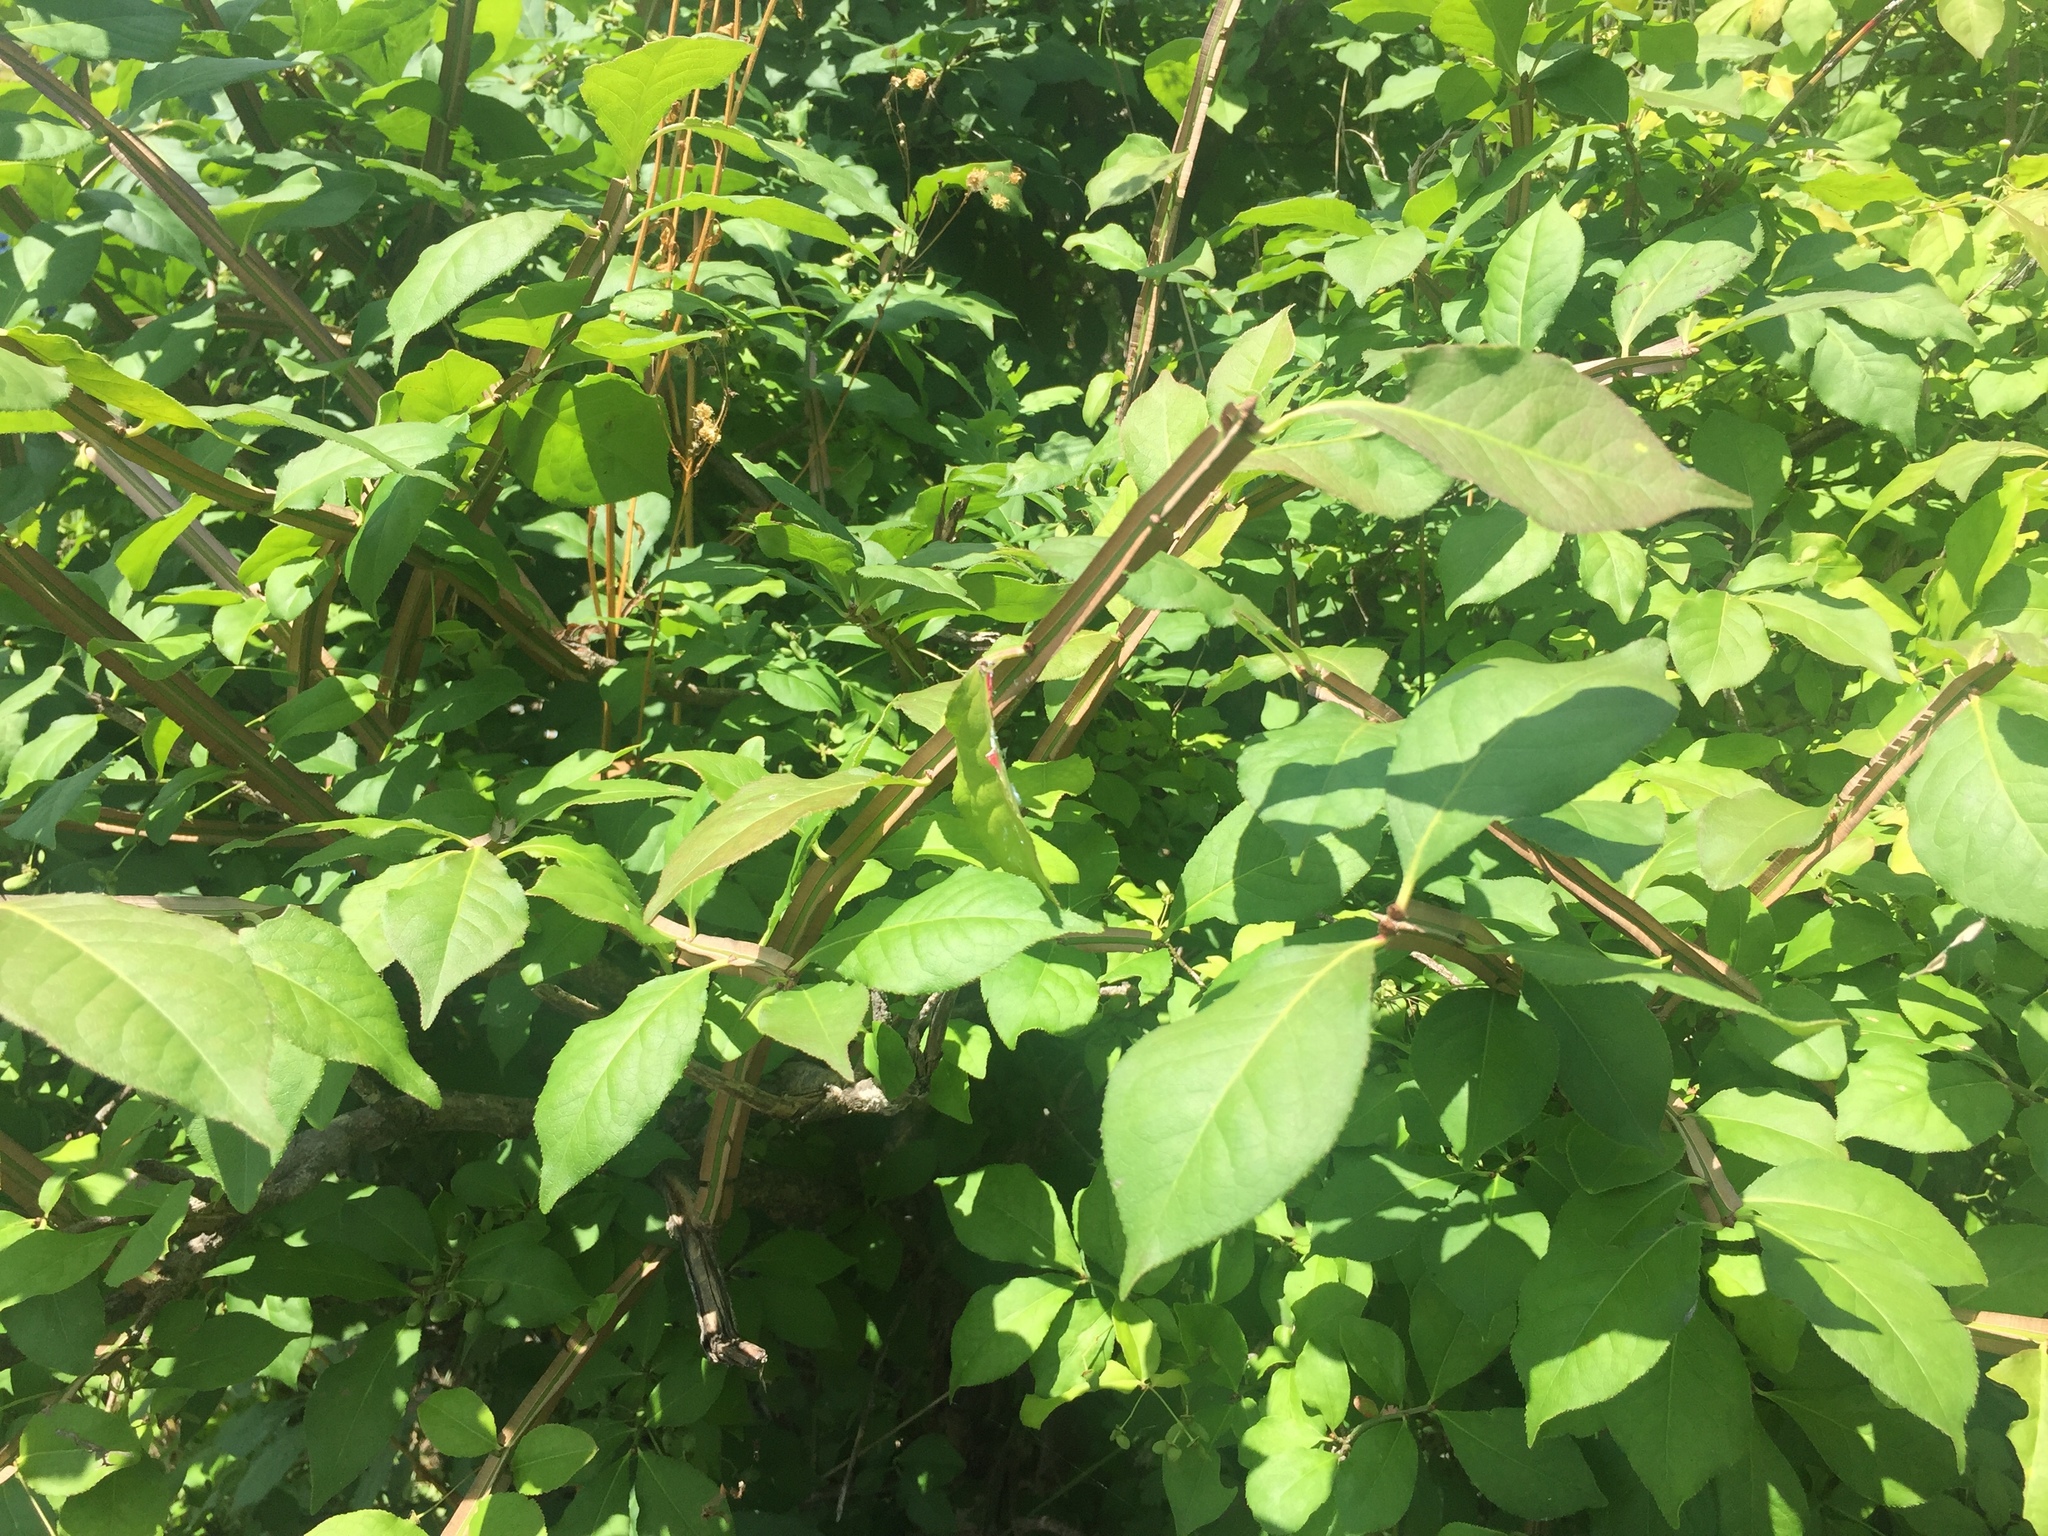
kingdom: Plantae
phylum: Tracheophyta
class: Magnoliopsida
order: Celastrales
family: Celastraceae
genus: Euonymus
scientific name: Euonymus alatus
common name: Winged euonymus
